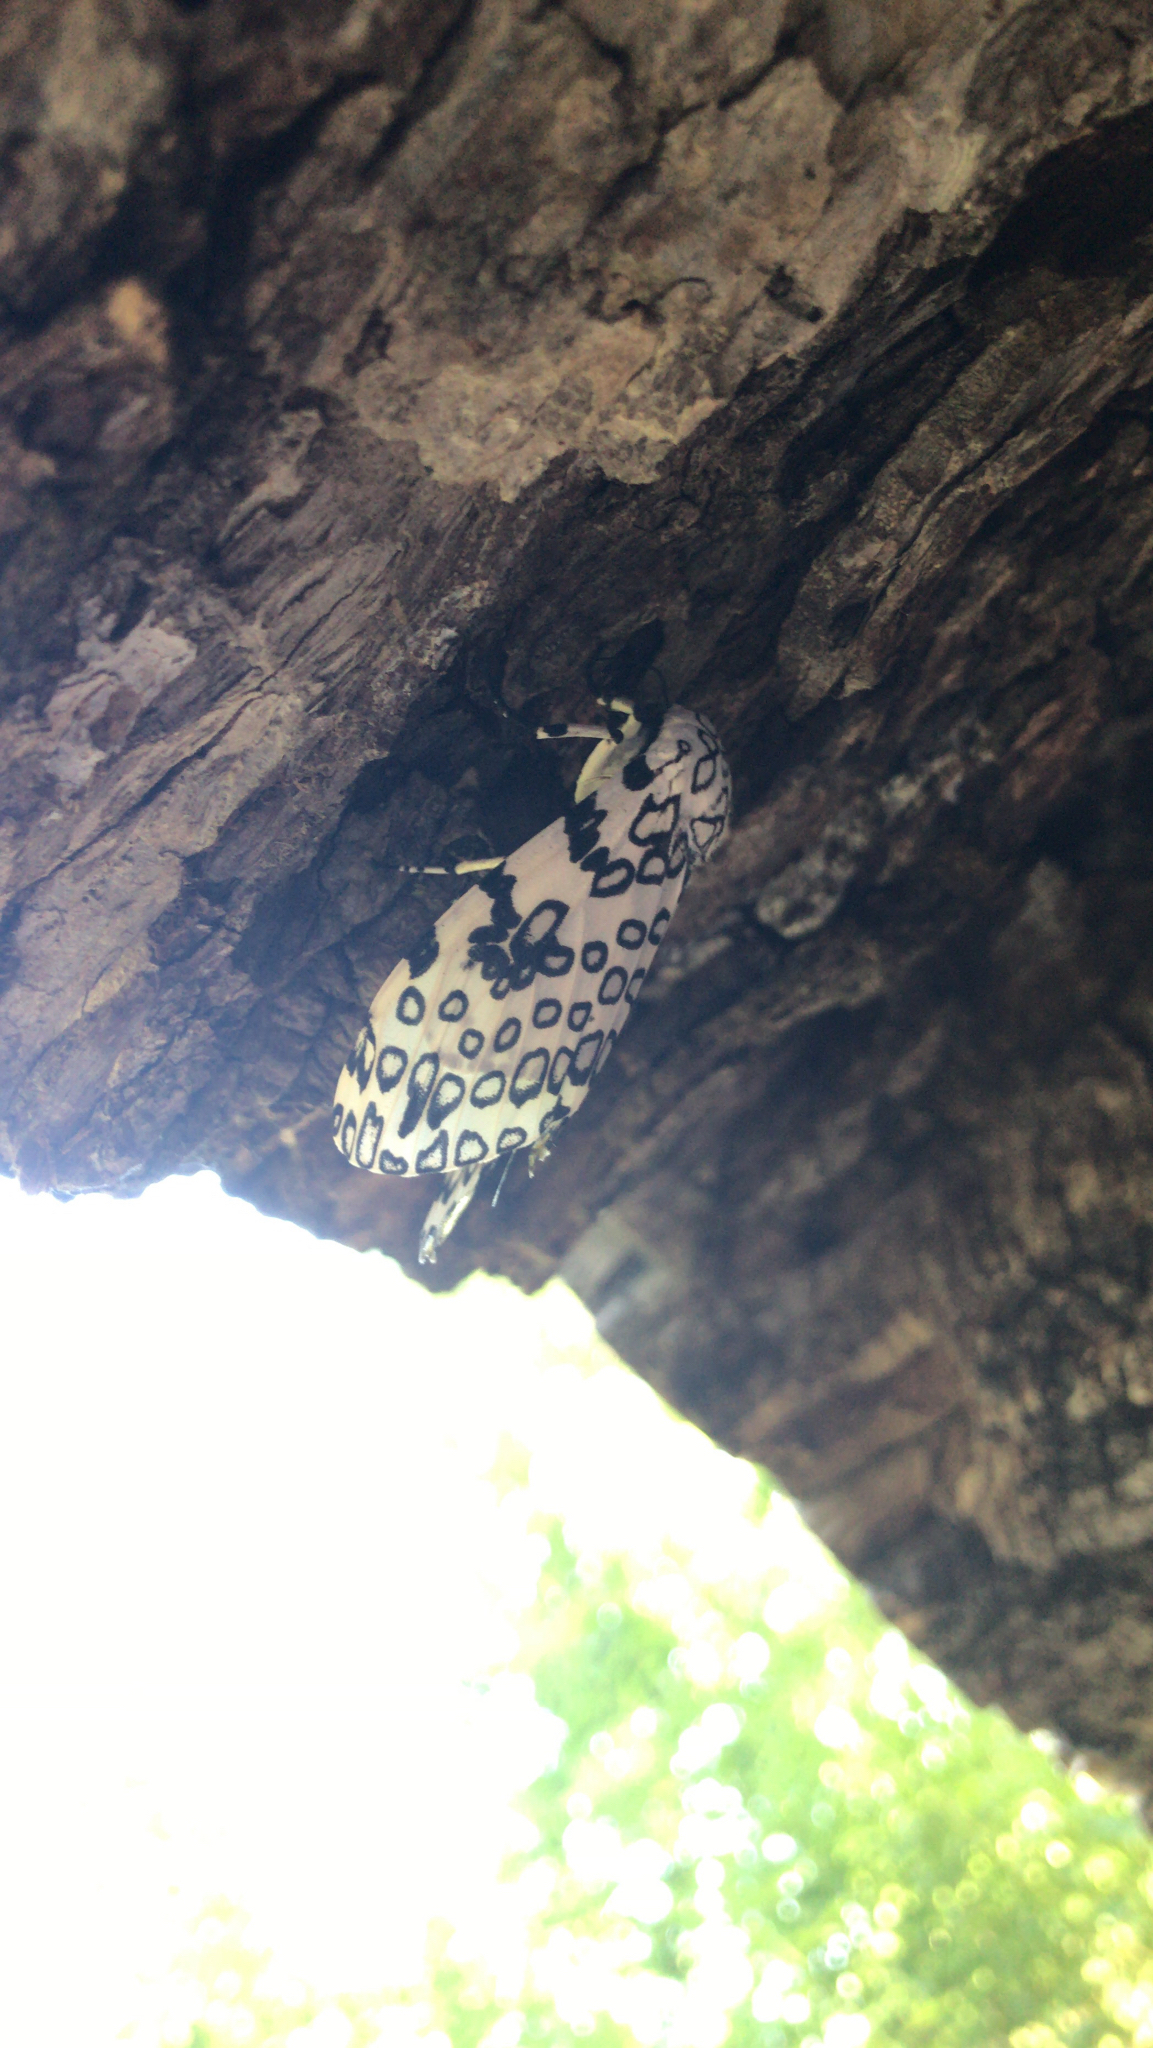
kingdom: Animalia
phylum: Arthropoda
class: Insecta
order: Lepidoptera
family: Erebidae
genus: Hypercompe
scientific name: Hypercompe scribonia
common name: Giant leopard moth
